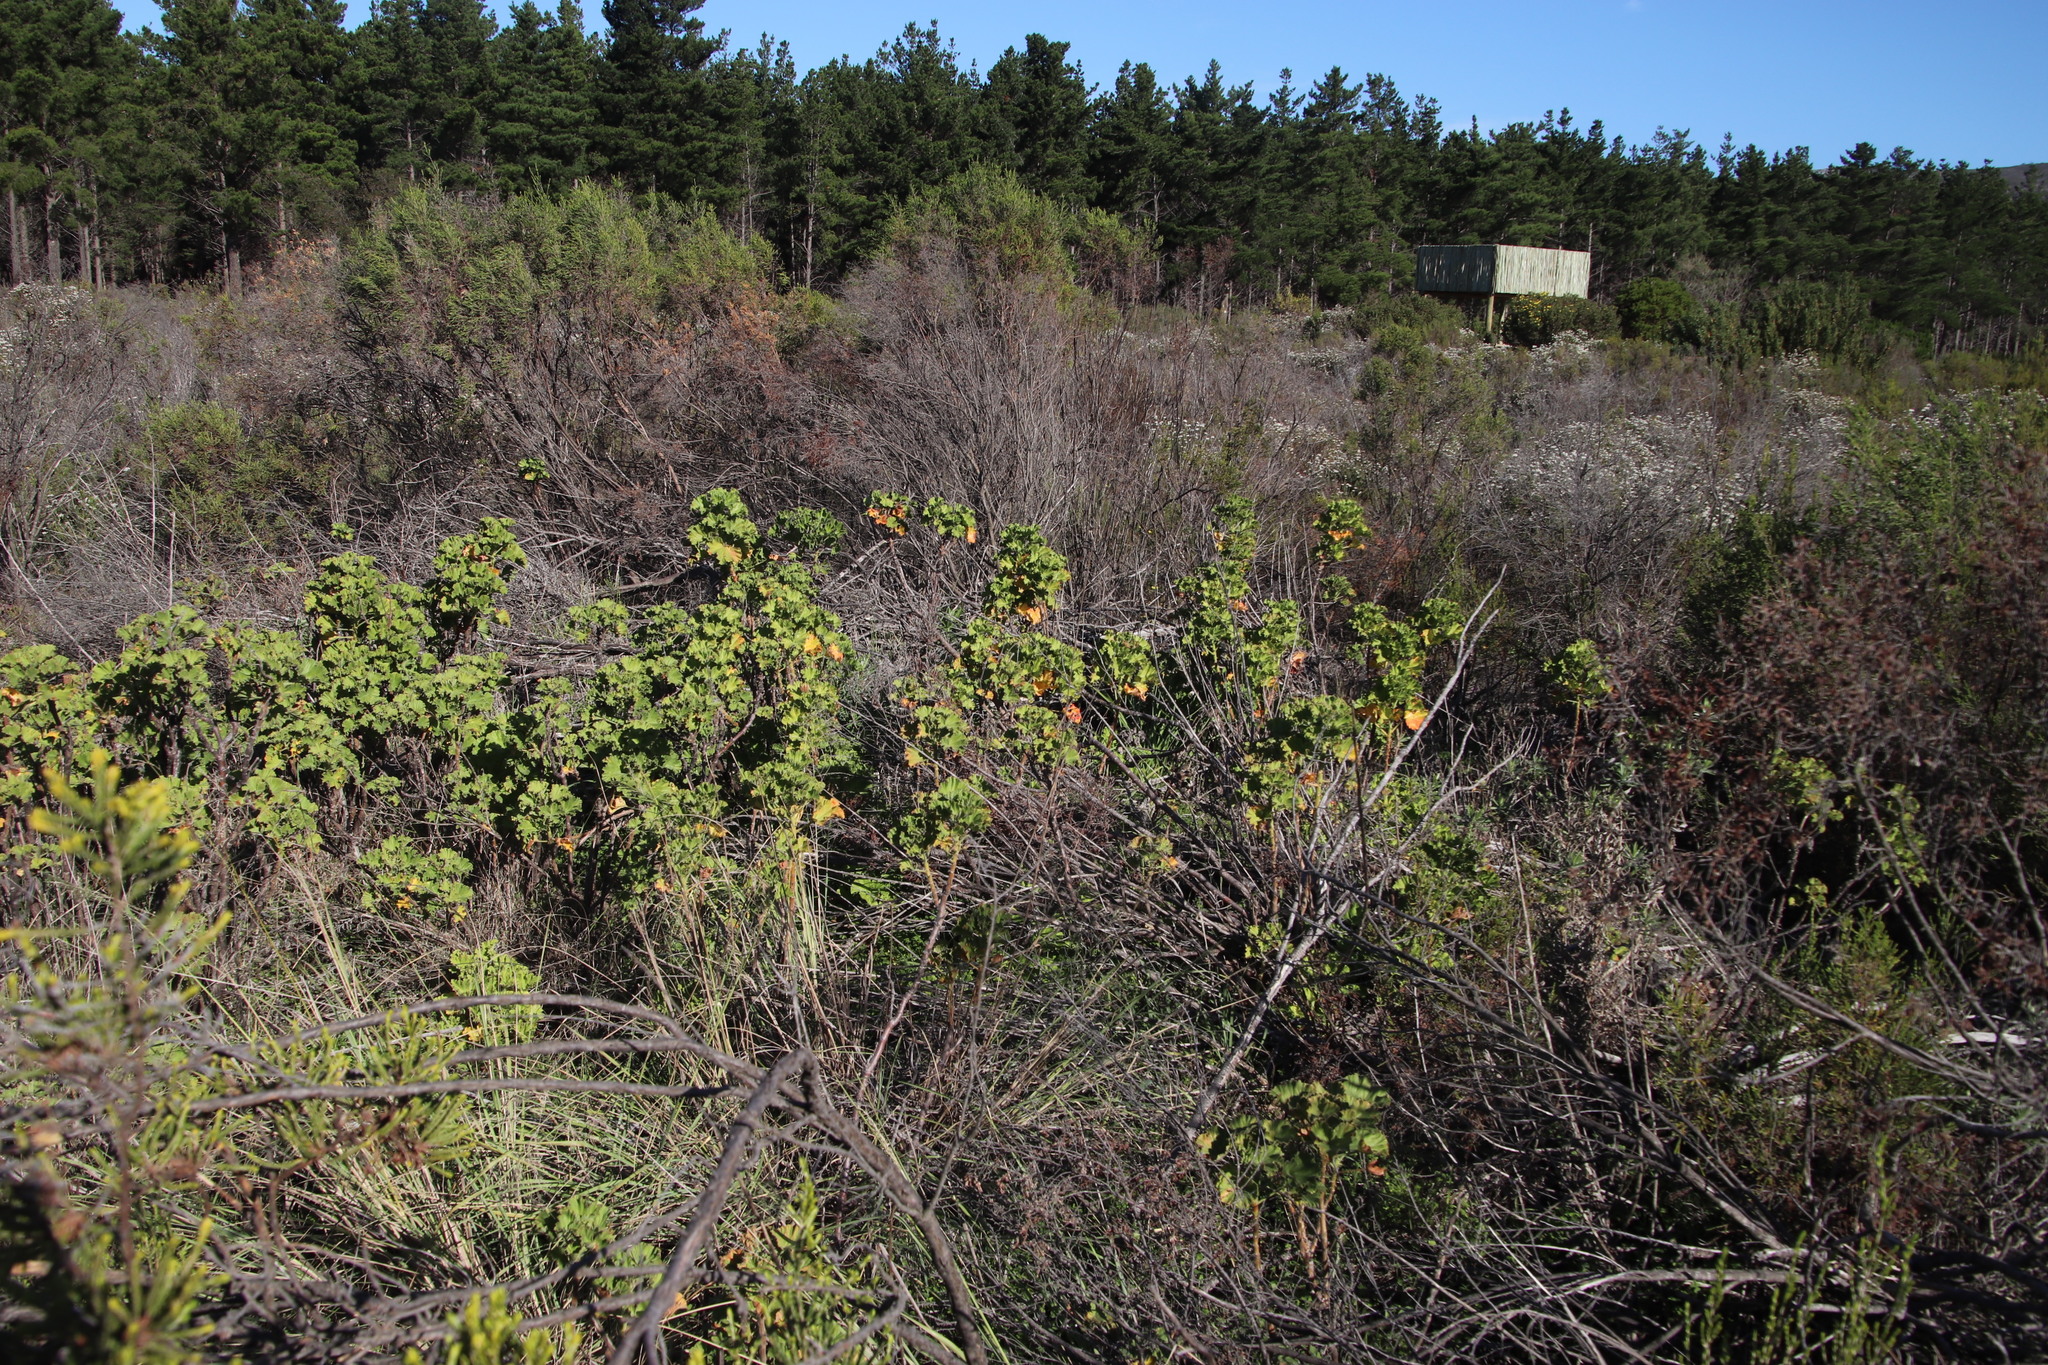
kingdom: Plantae
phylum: Tracheophyta
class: Magnoliopsida
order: Geraniales
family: Geraniaceae
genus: Pelargonium
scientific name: Pelargonium cucullatum
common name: Tree pelargonium
